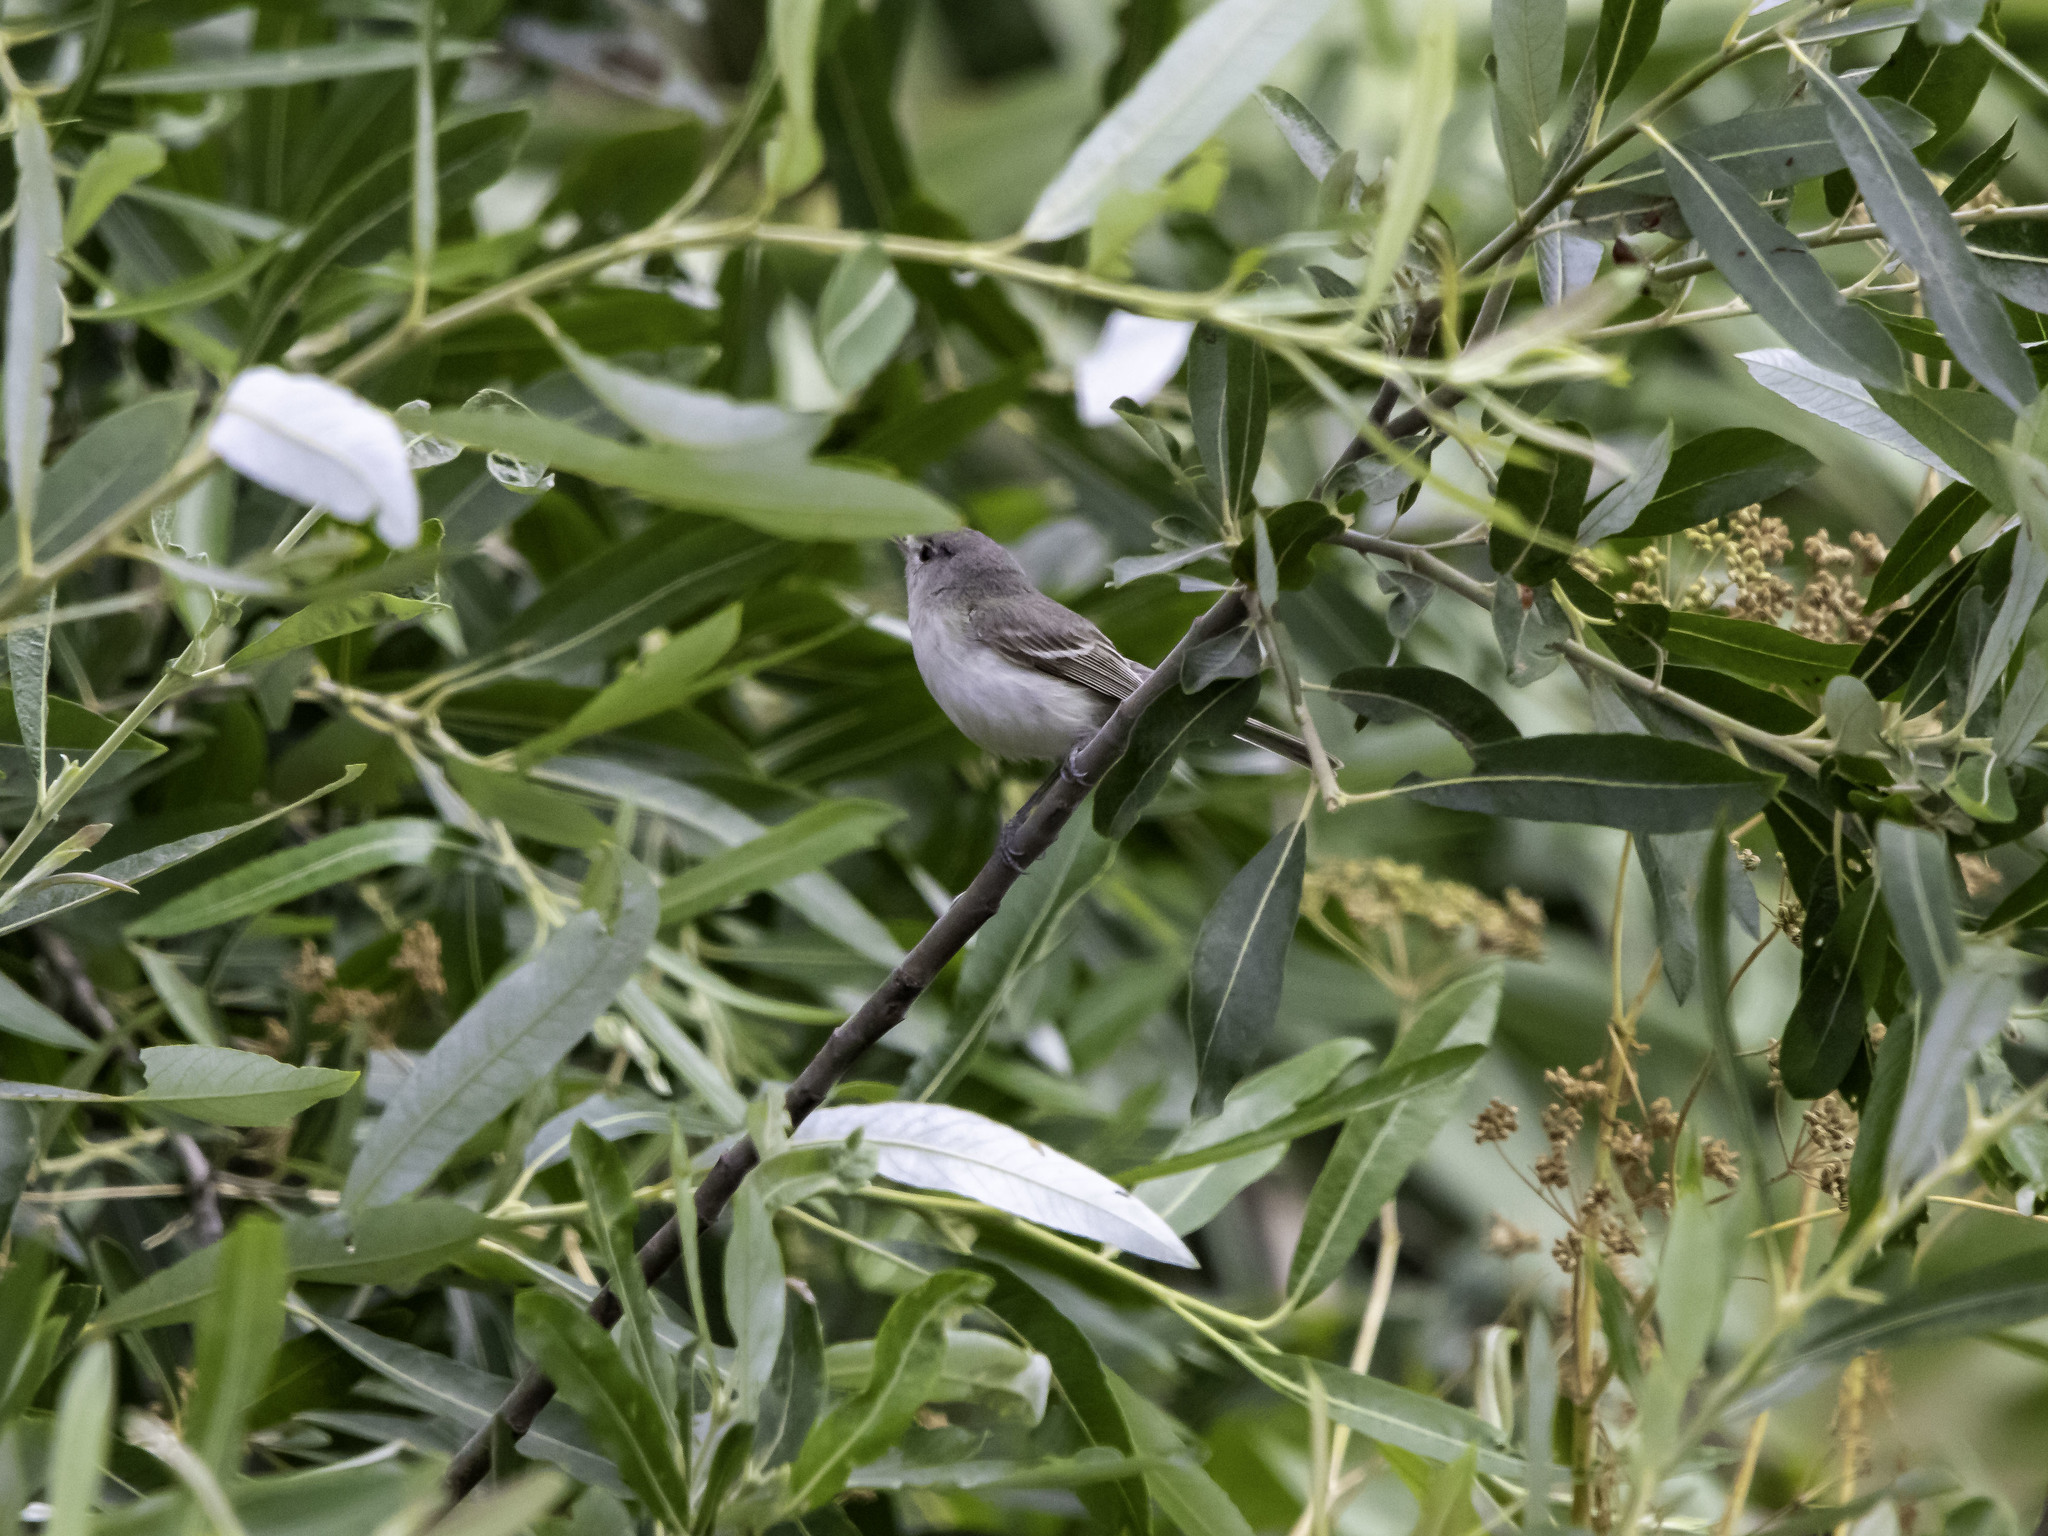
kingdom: Animalia
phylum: Chordata
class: Aves
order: Passeriformes
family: Vireonidae
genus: Vireo
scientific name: Vireo bellii
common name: Bell's vireo
